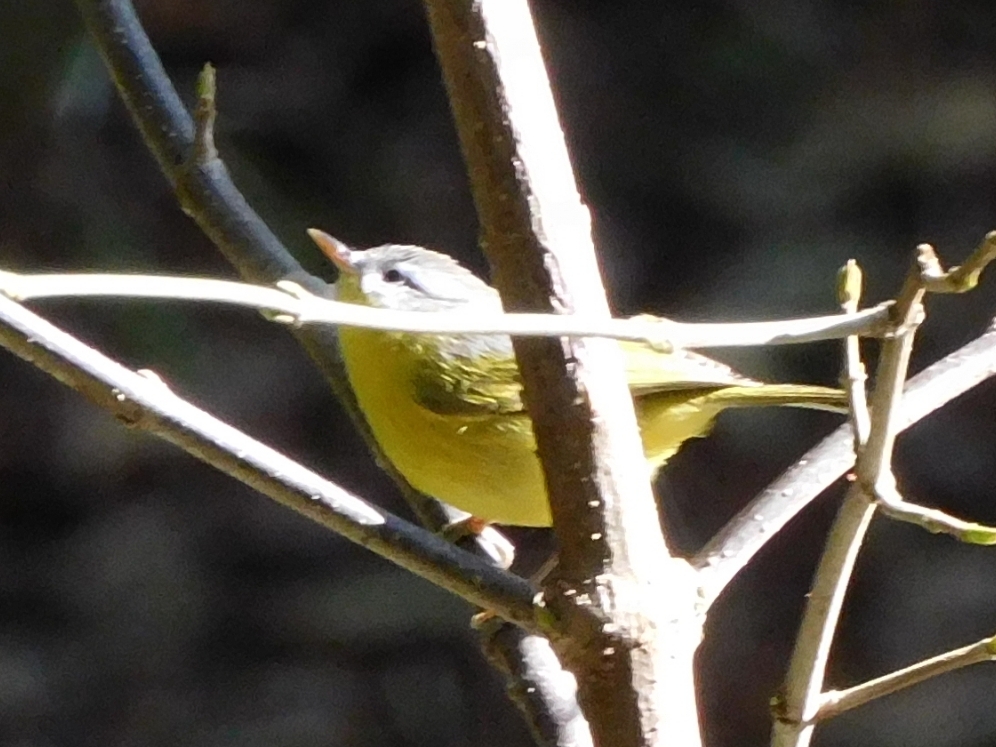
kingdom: Animalia
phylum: Chordata
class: Aves
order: Passeriformes
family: Phylloscopidae
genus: Phylloscopus
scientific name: Phylloscopus xanthoschistos
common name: Grey-hooded warbler
